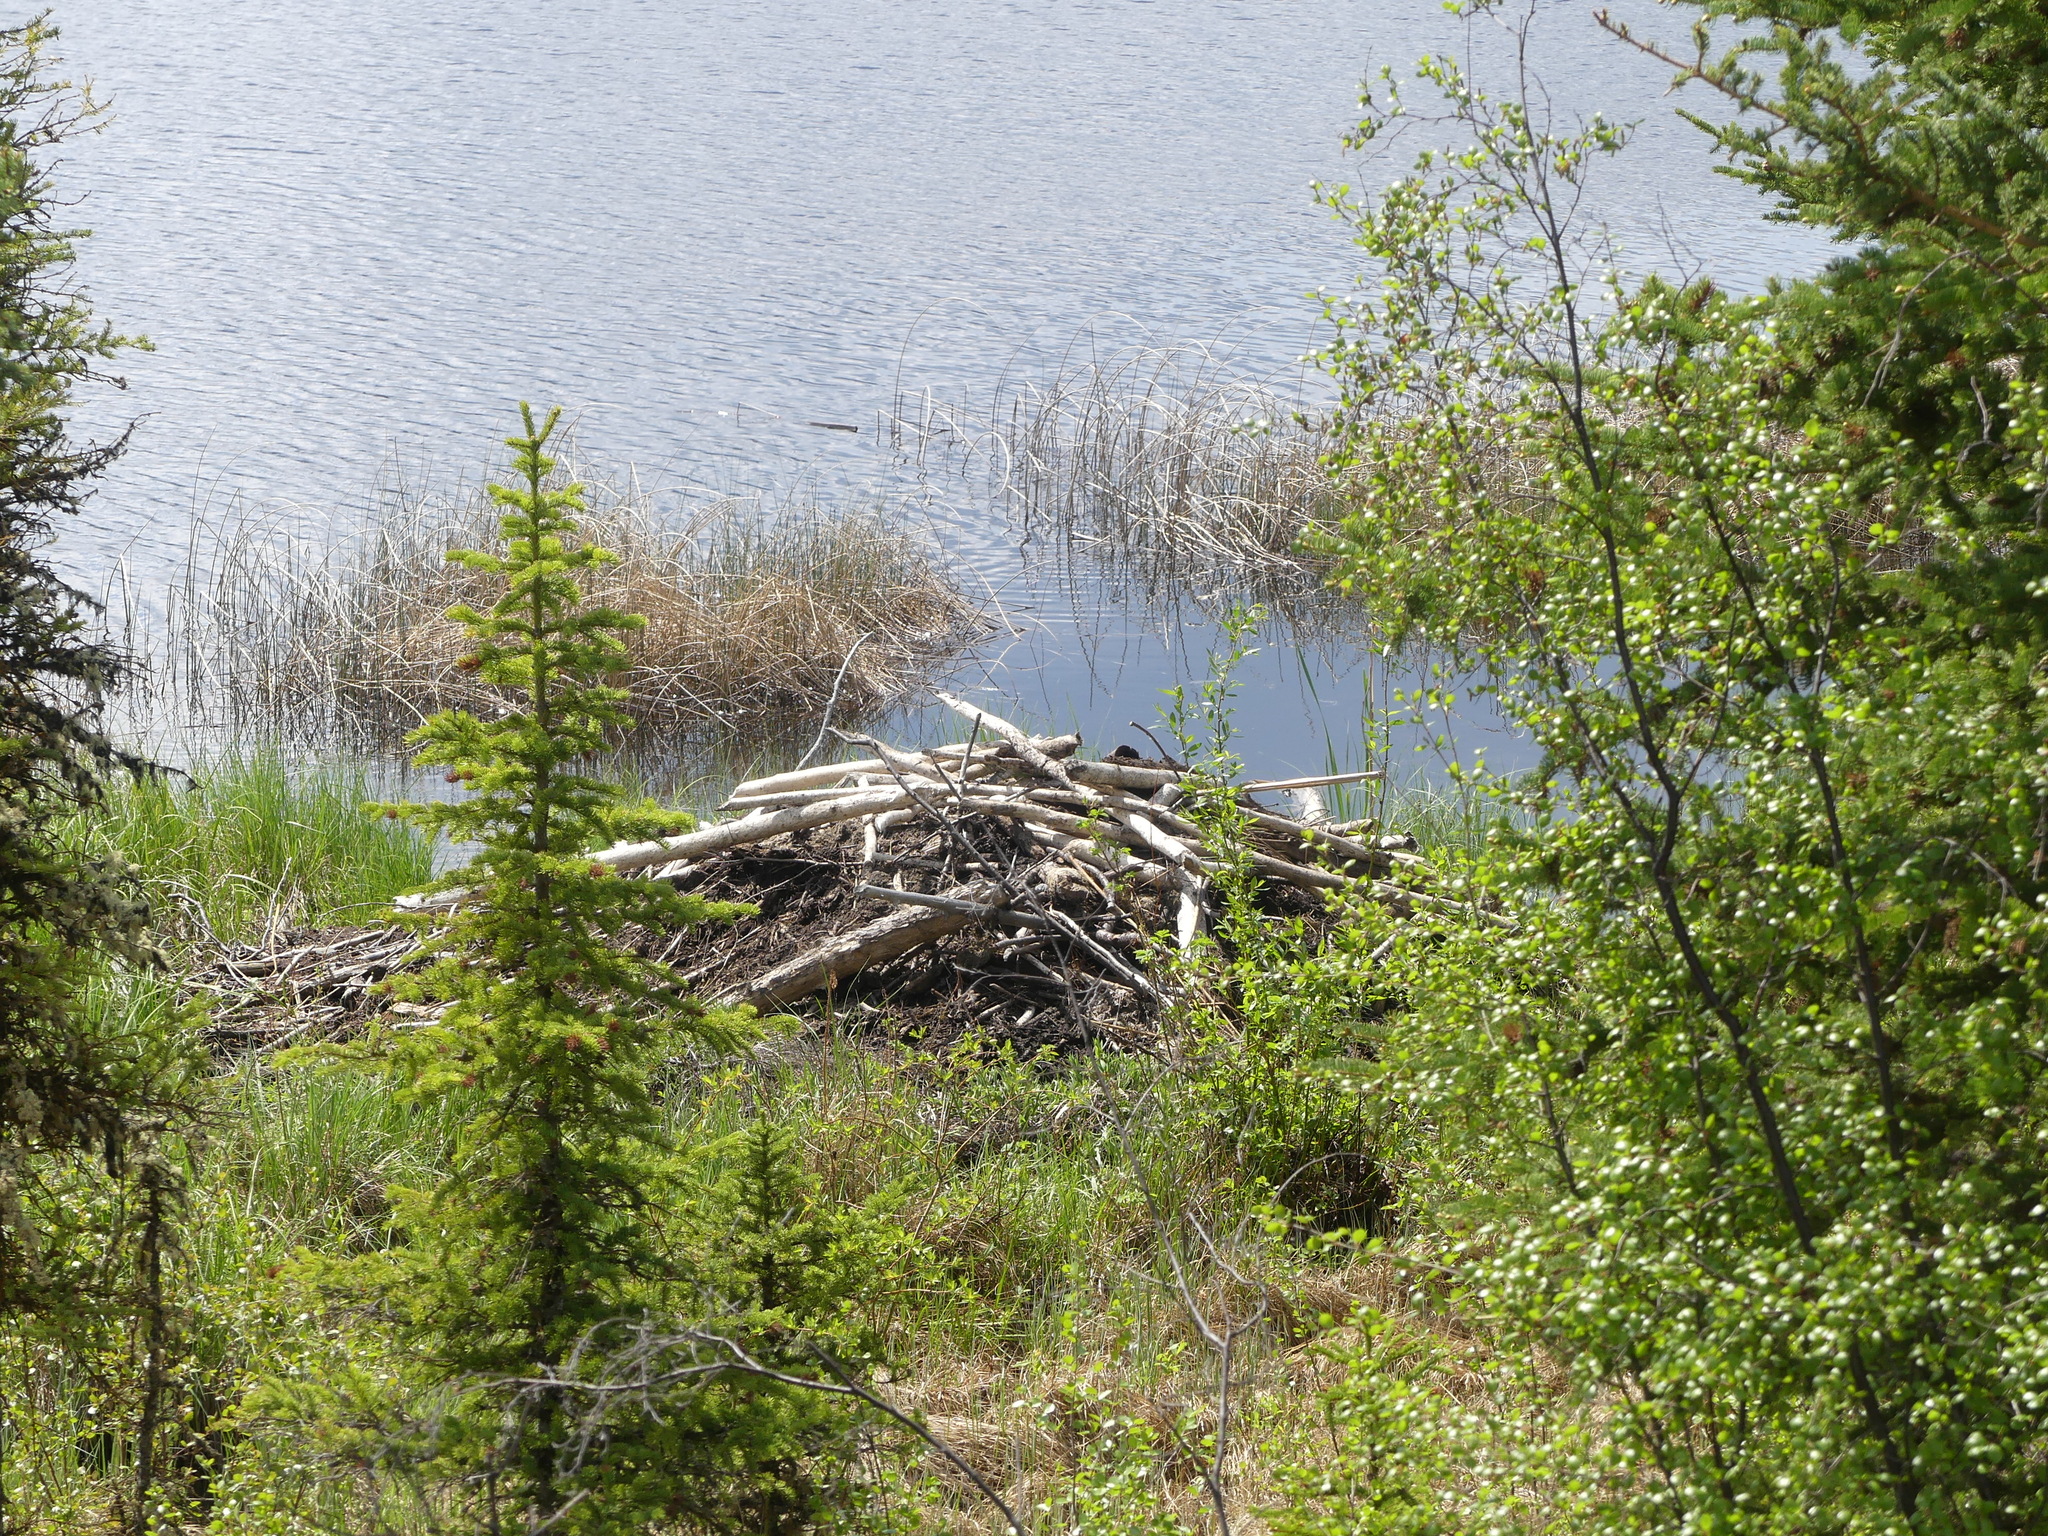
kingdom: Animalia
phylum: Chordata
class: Mammalia
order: Rodentia
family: Castoridae
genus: Castor
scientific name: Castor canadensis
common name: American beaver
